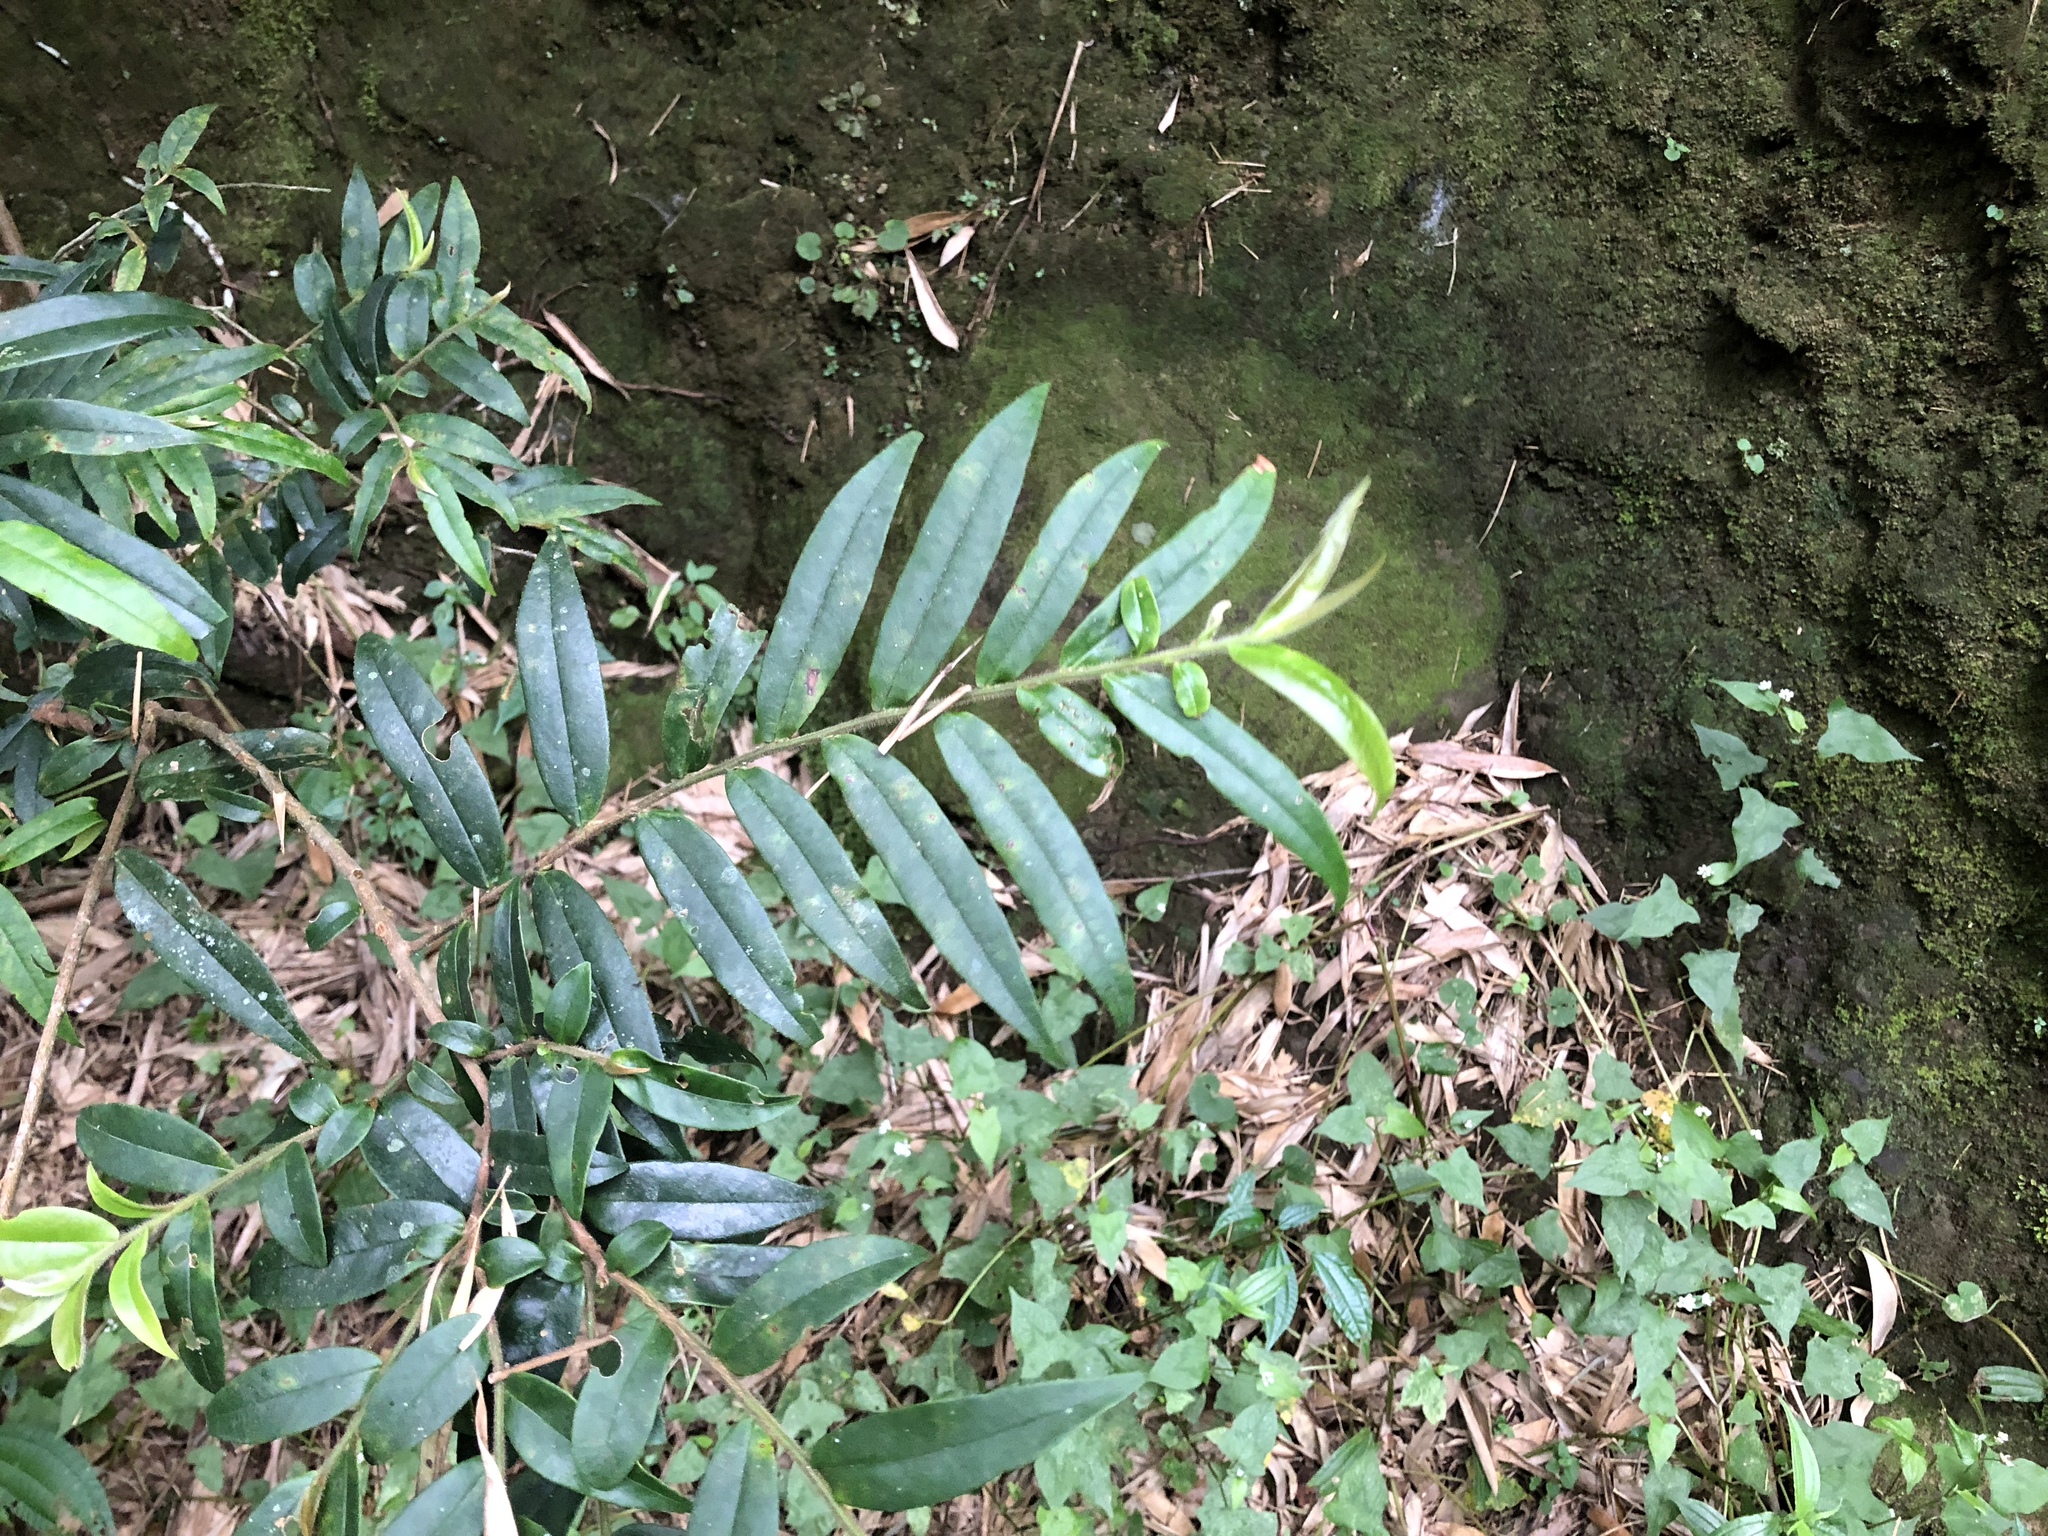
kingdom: Plantae
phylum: Tracheophyta
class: Magnoliopsida
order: Ericales
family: Pentaphylacaceae
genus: Eurya
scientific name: Eurya strigillosa
